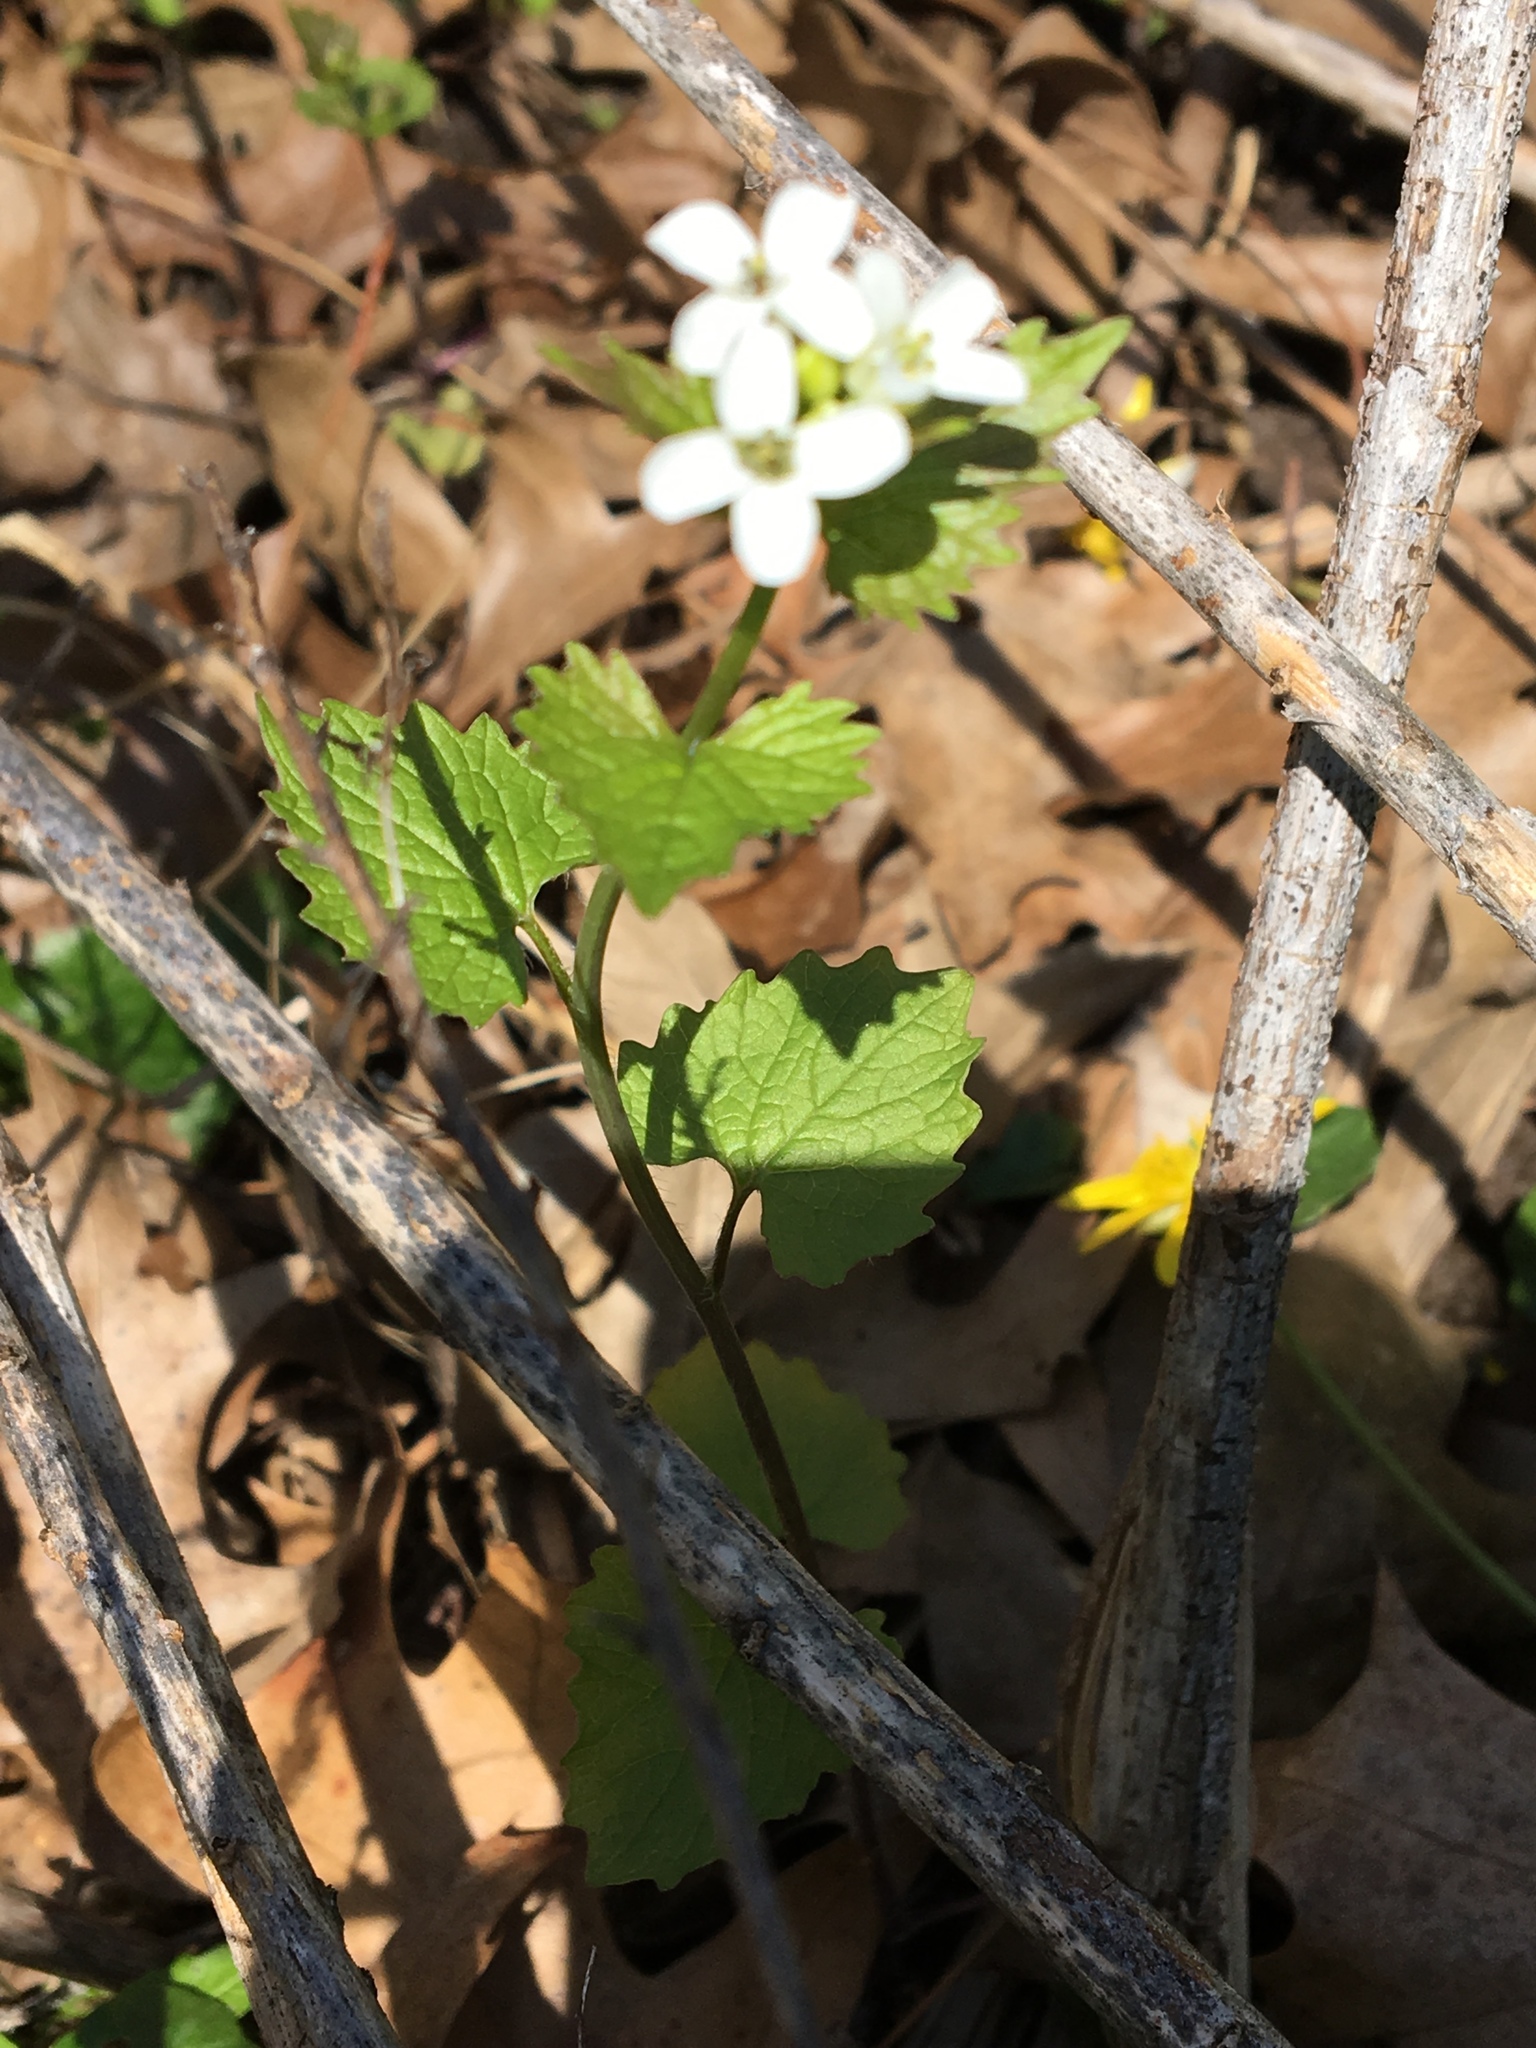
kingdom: Plantae
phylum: Tracheophyta
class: Magnoliopsida
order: Brassicales
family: Brassicaceae
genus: Alliaria
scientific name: Alliaria petiolata
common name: Garlic mustard
